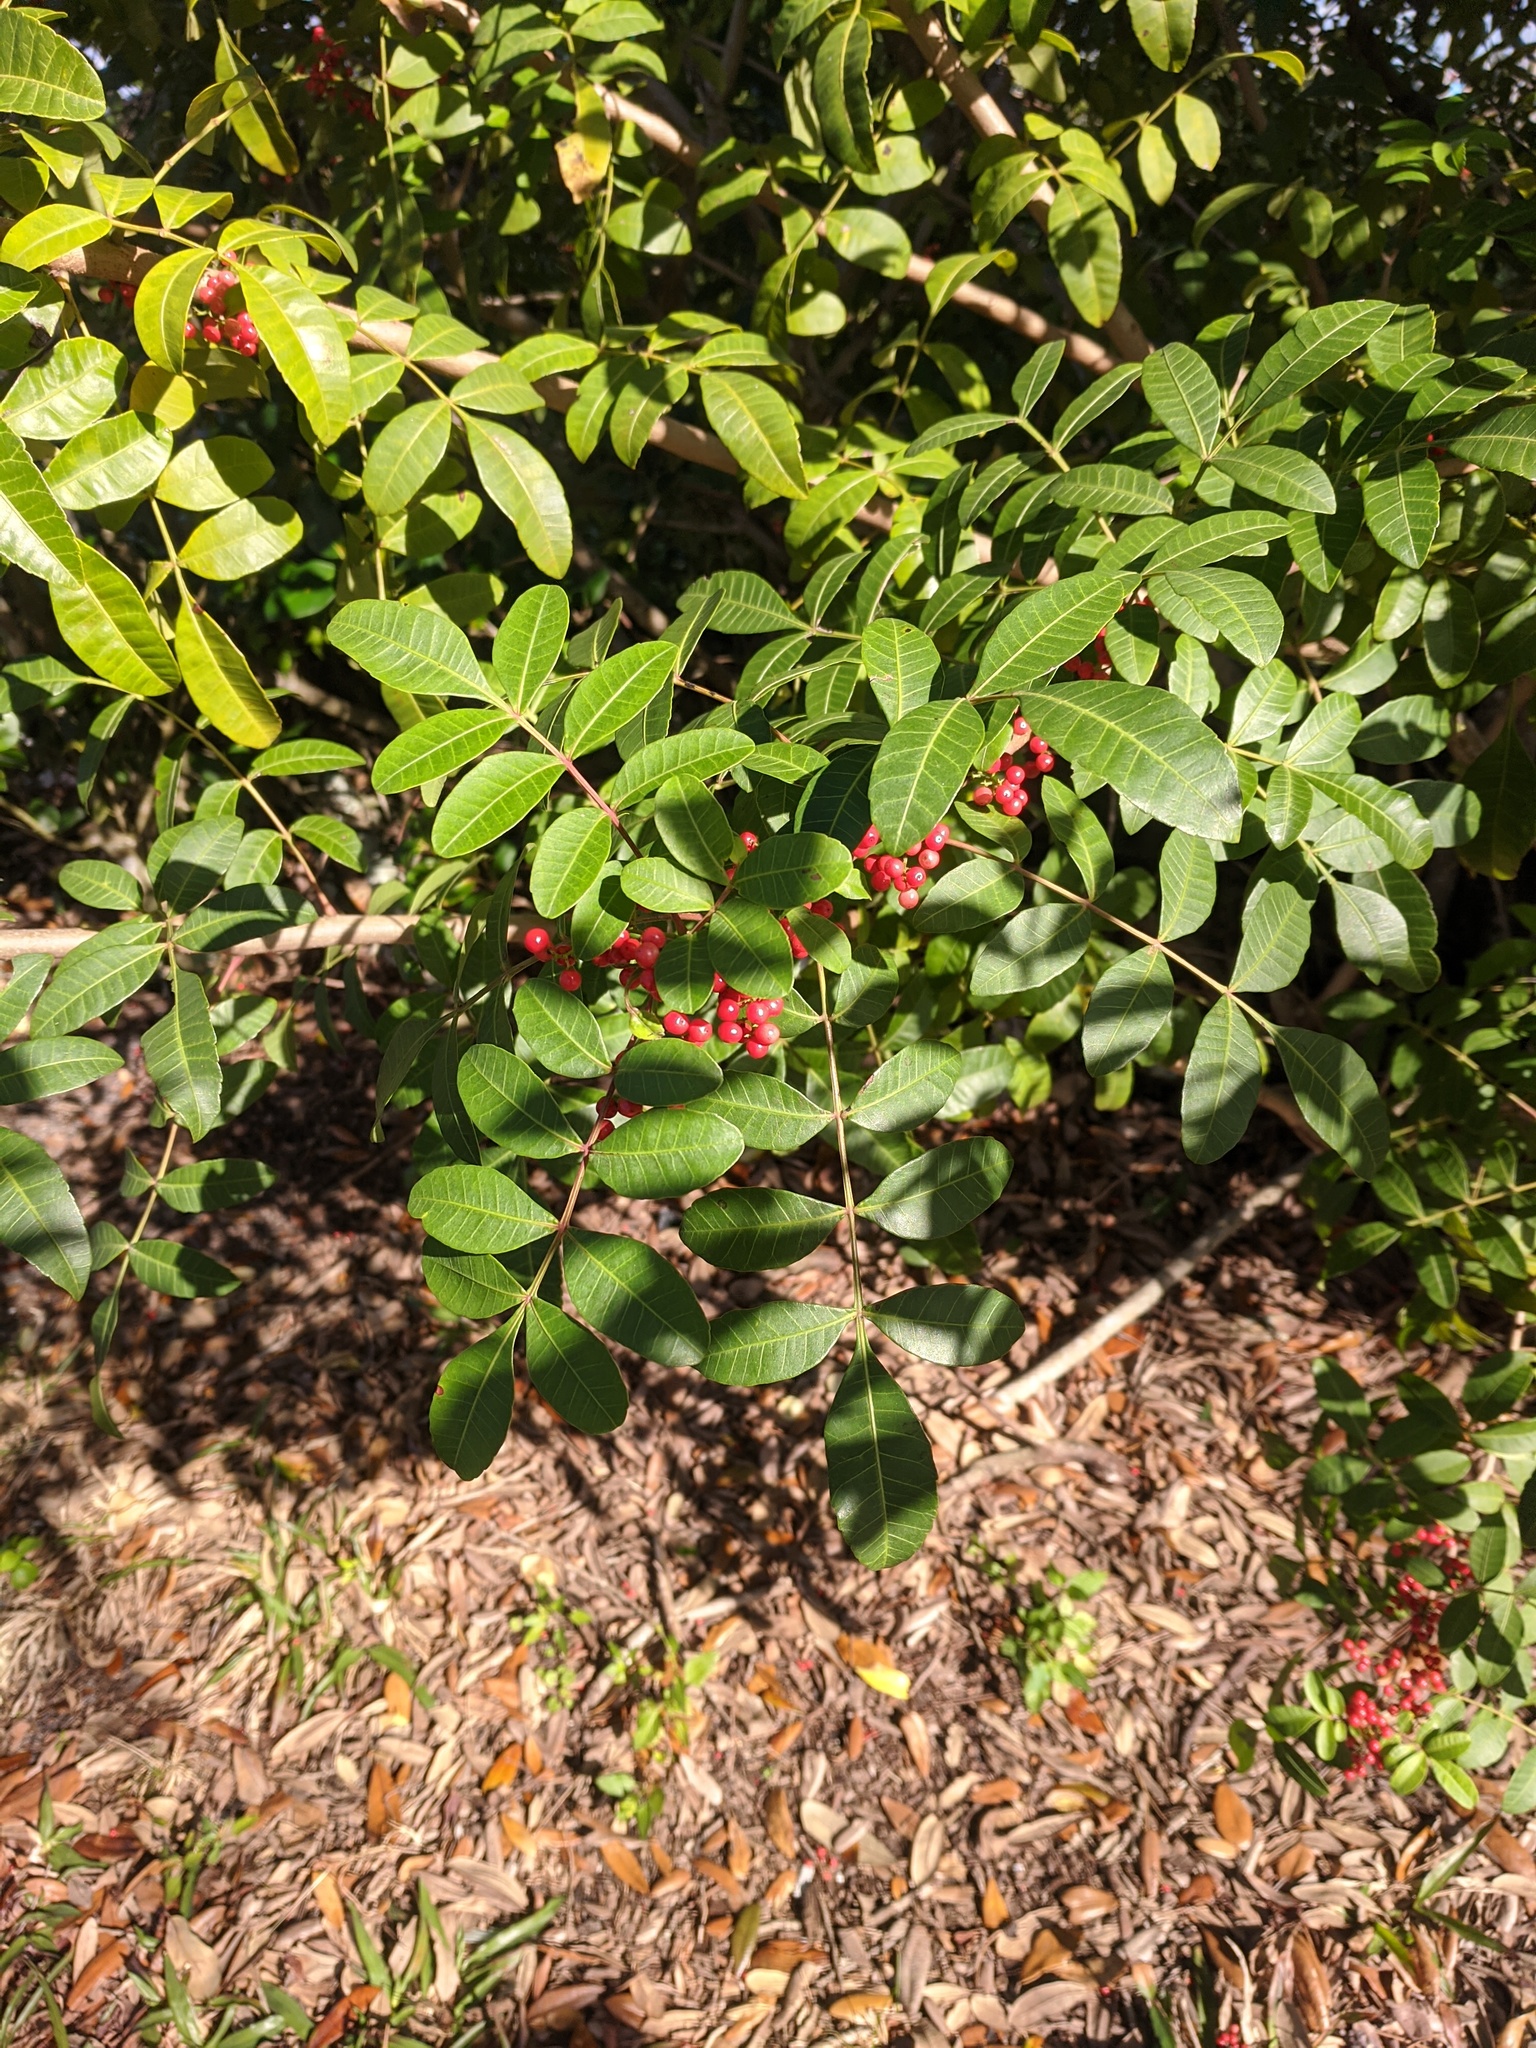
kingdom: Plantae
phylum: Tracheophyta
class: Magnoliopsida
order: Sapindales
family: Anacardiaceae
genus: Schinus
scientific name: Schinus terebinthifolia
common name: Brazilian peppertree
